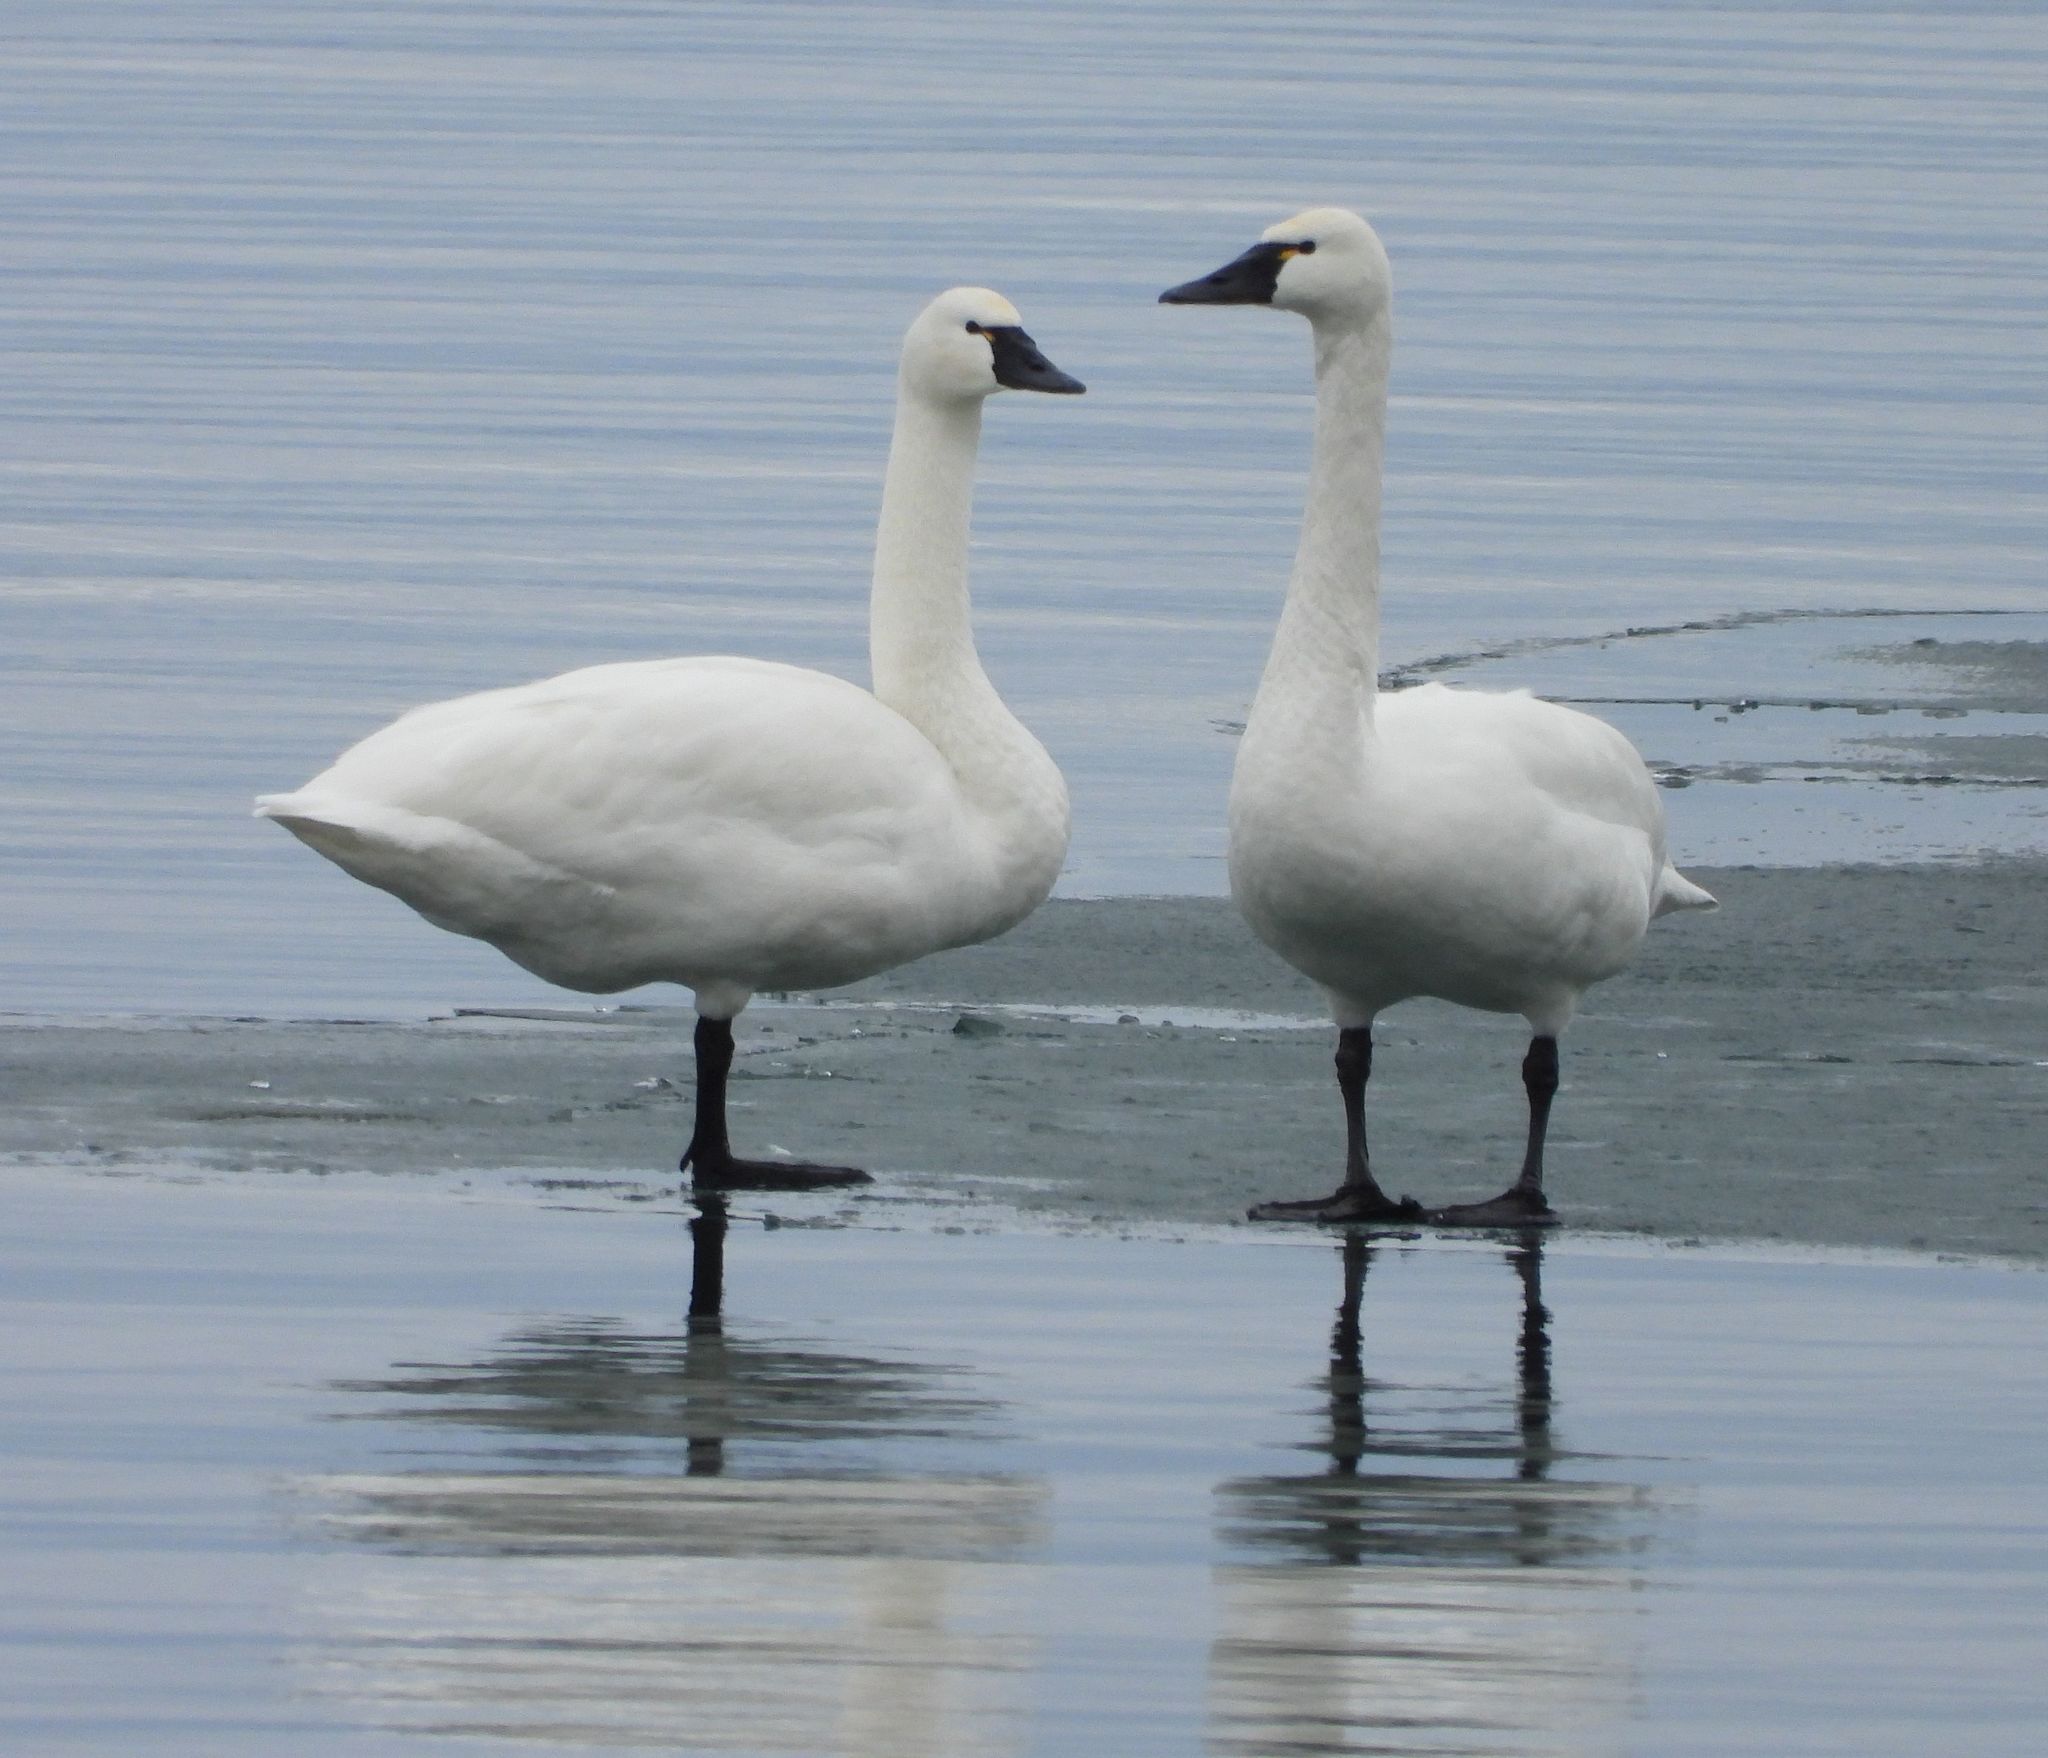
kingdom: Animalia
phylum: Chordata
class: Aves
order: Anseriformes
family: Anatidae
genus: Cygnus
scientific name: Cygnus columbianus
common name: Tundra swan
